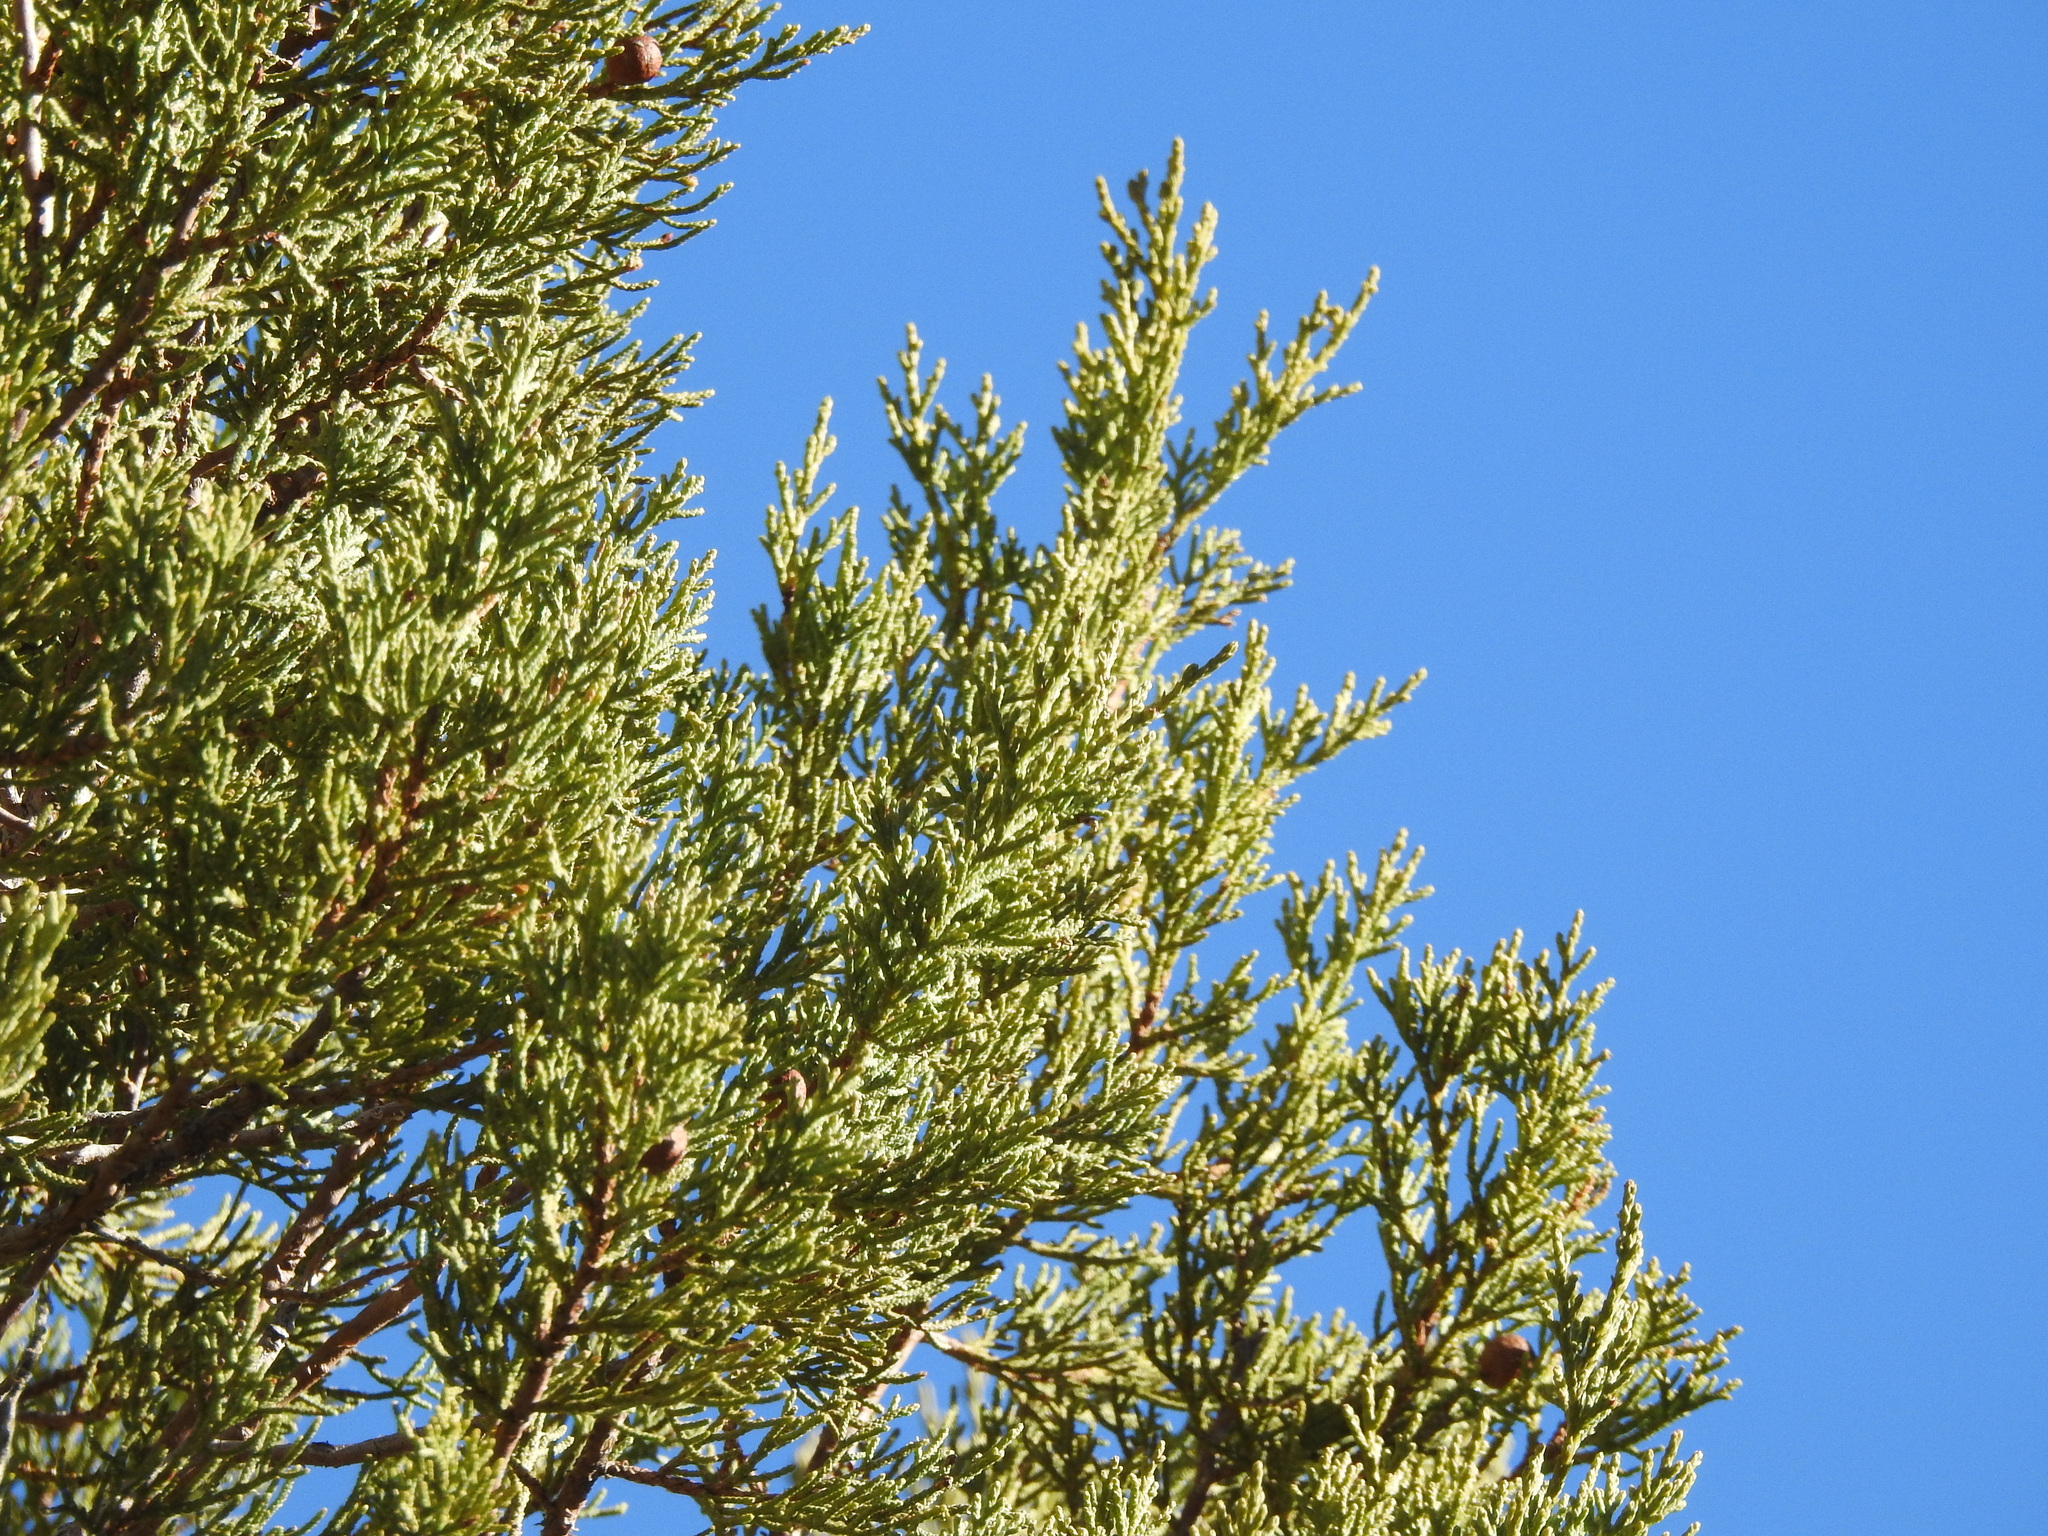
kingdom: Plantae
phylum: Tracheophyta
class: Pinopsida
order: Pinales
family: Cupressaceae
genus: Juniperus
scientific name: Juniperus deppeana
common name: Alligator juniper
